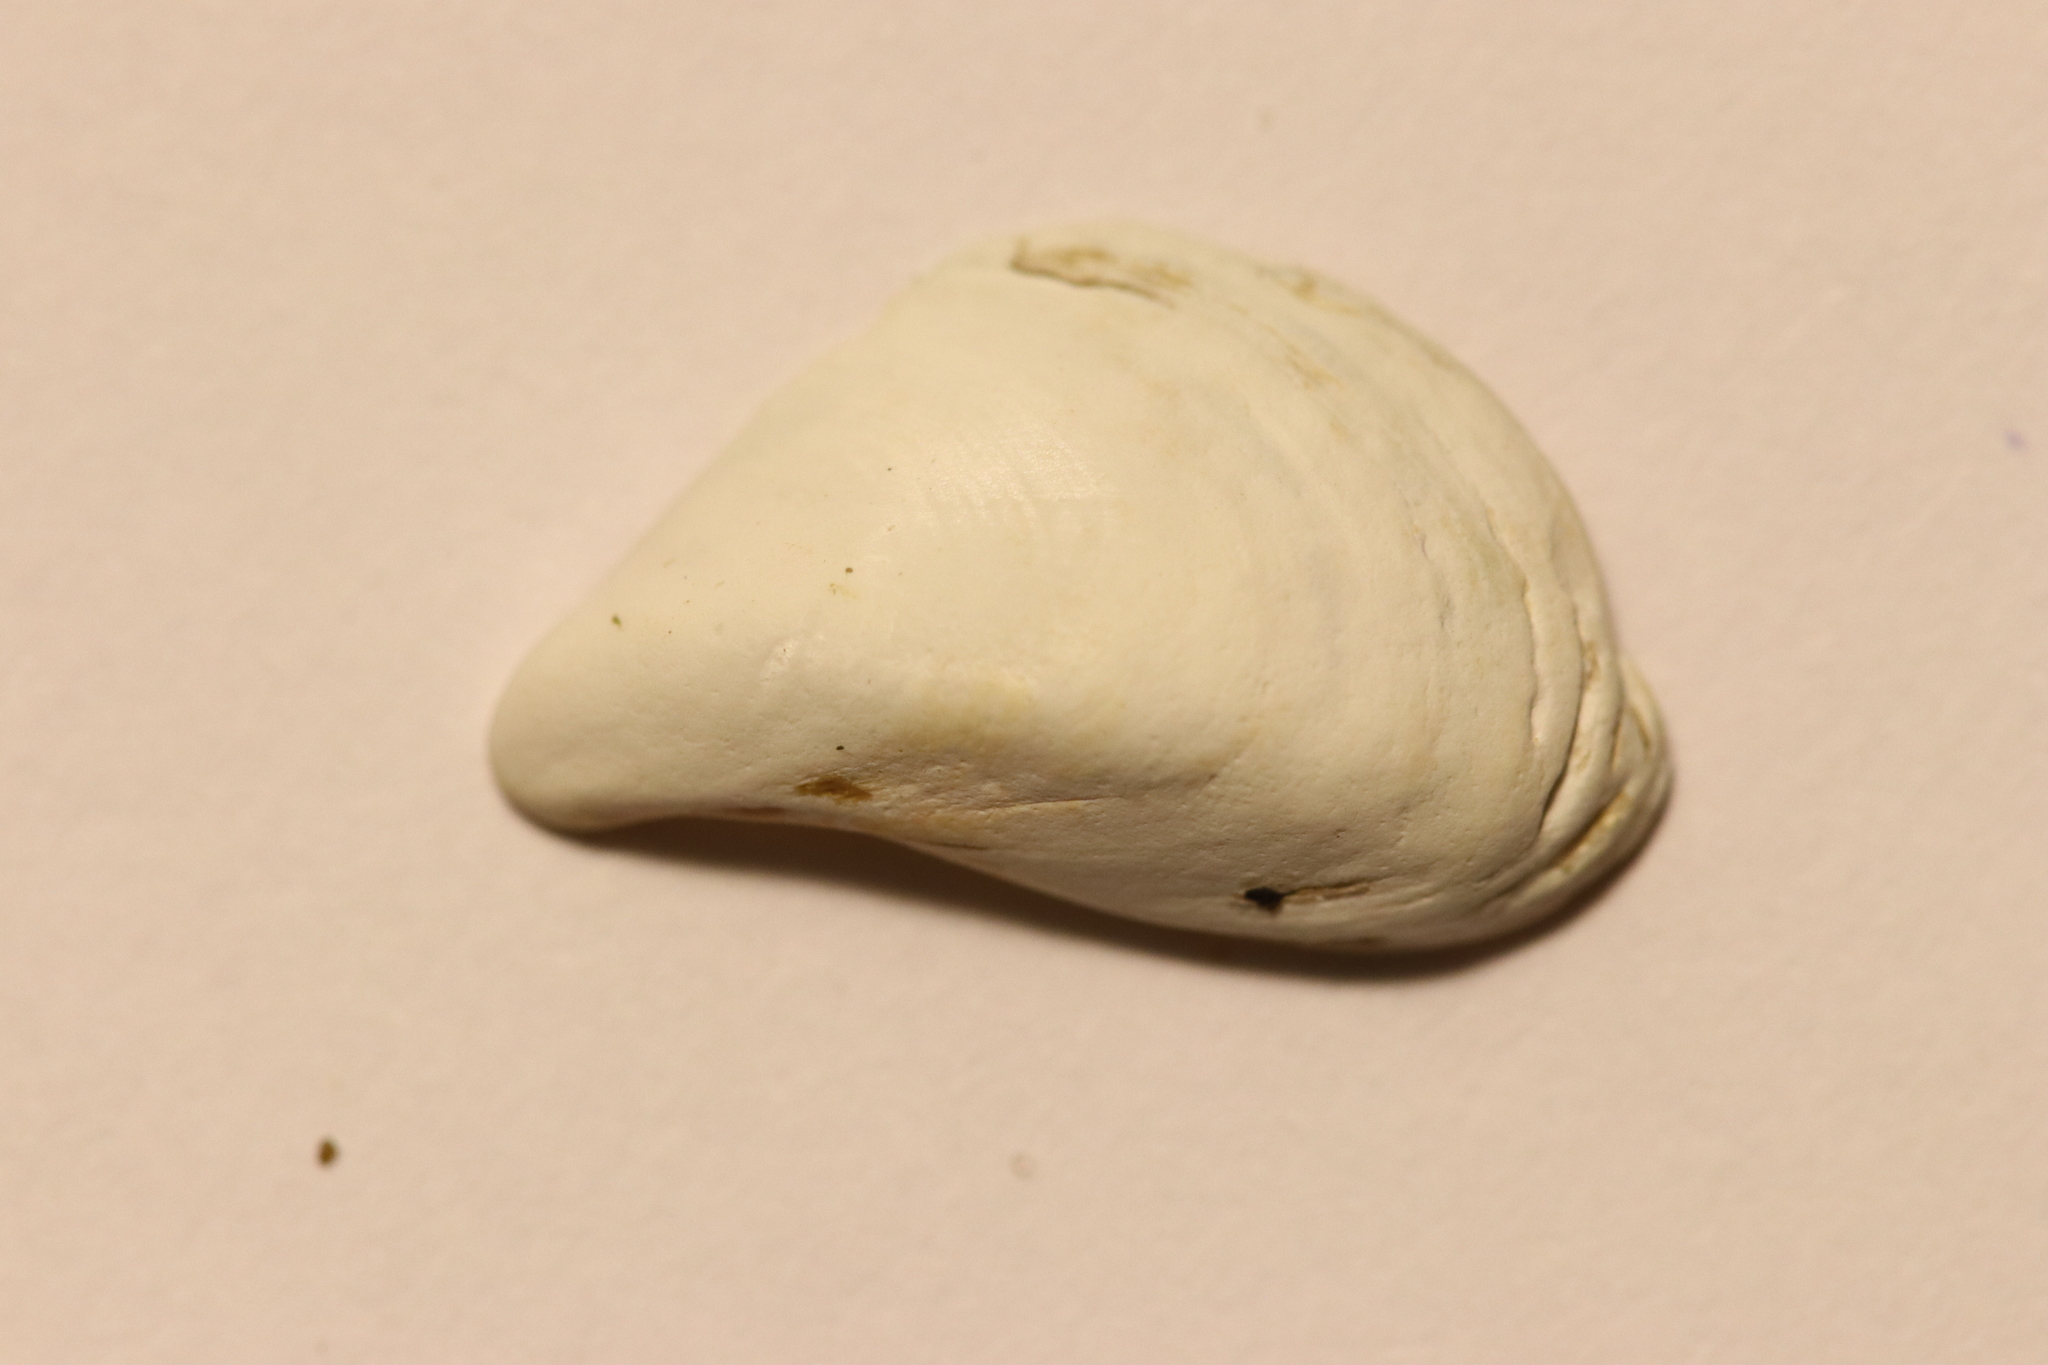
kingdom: Animalia
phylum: Mollusca
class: Bivalvia
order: Myida
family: Dreissenidae
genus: Dreissena
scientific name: Dreissena bugensis
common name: Quagga mussel
